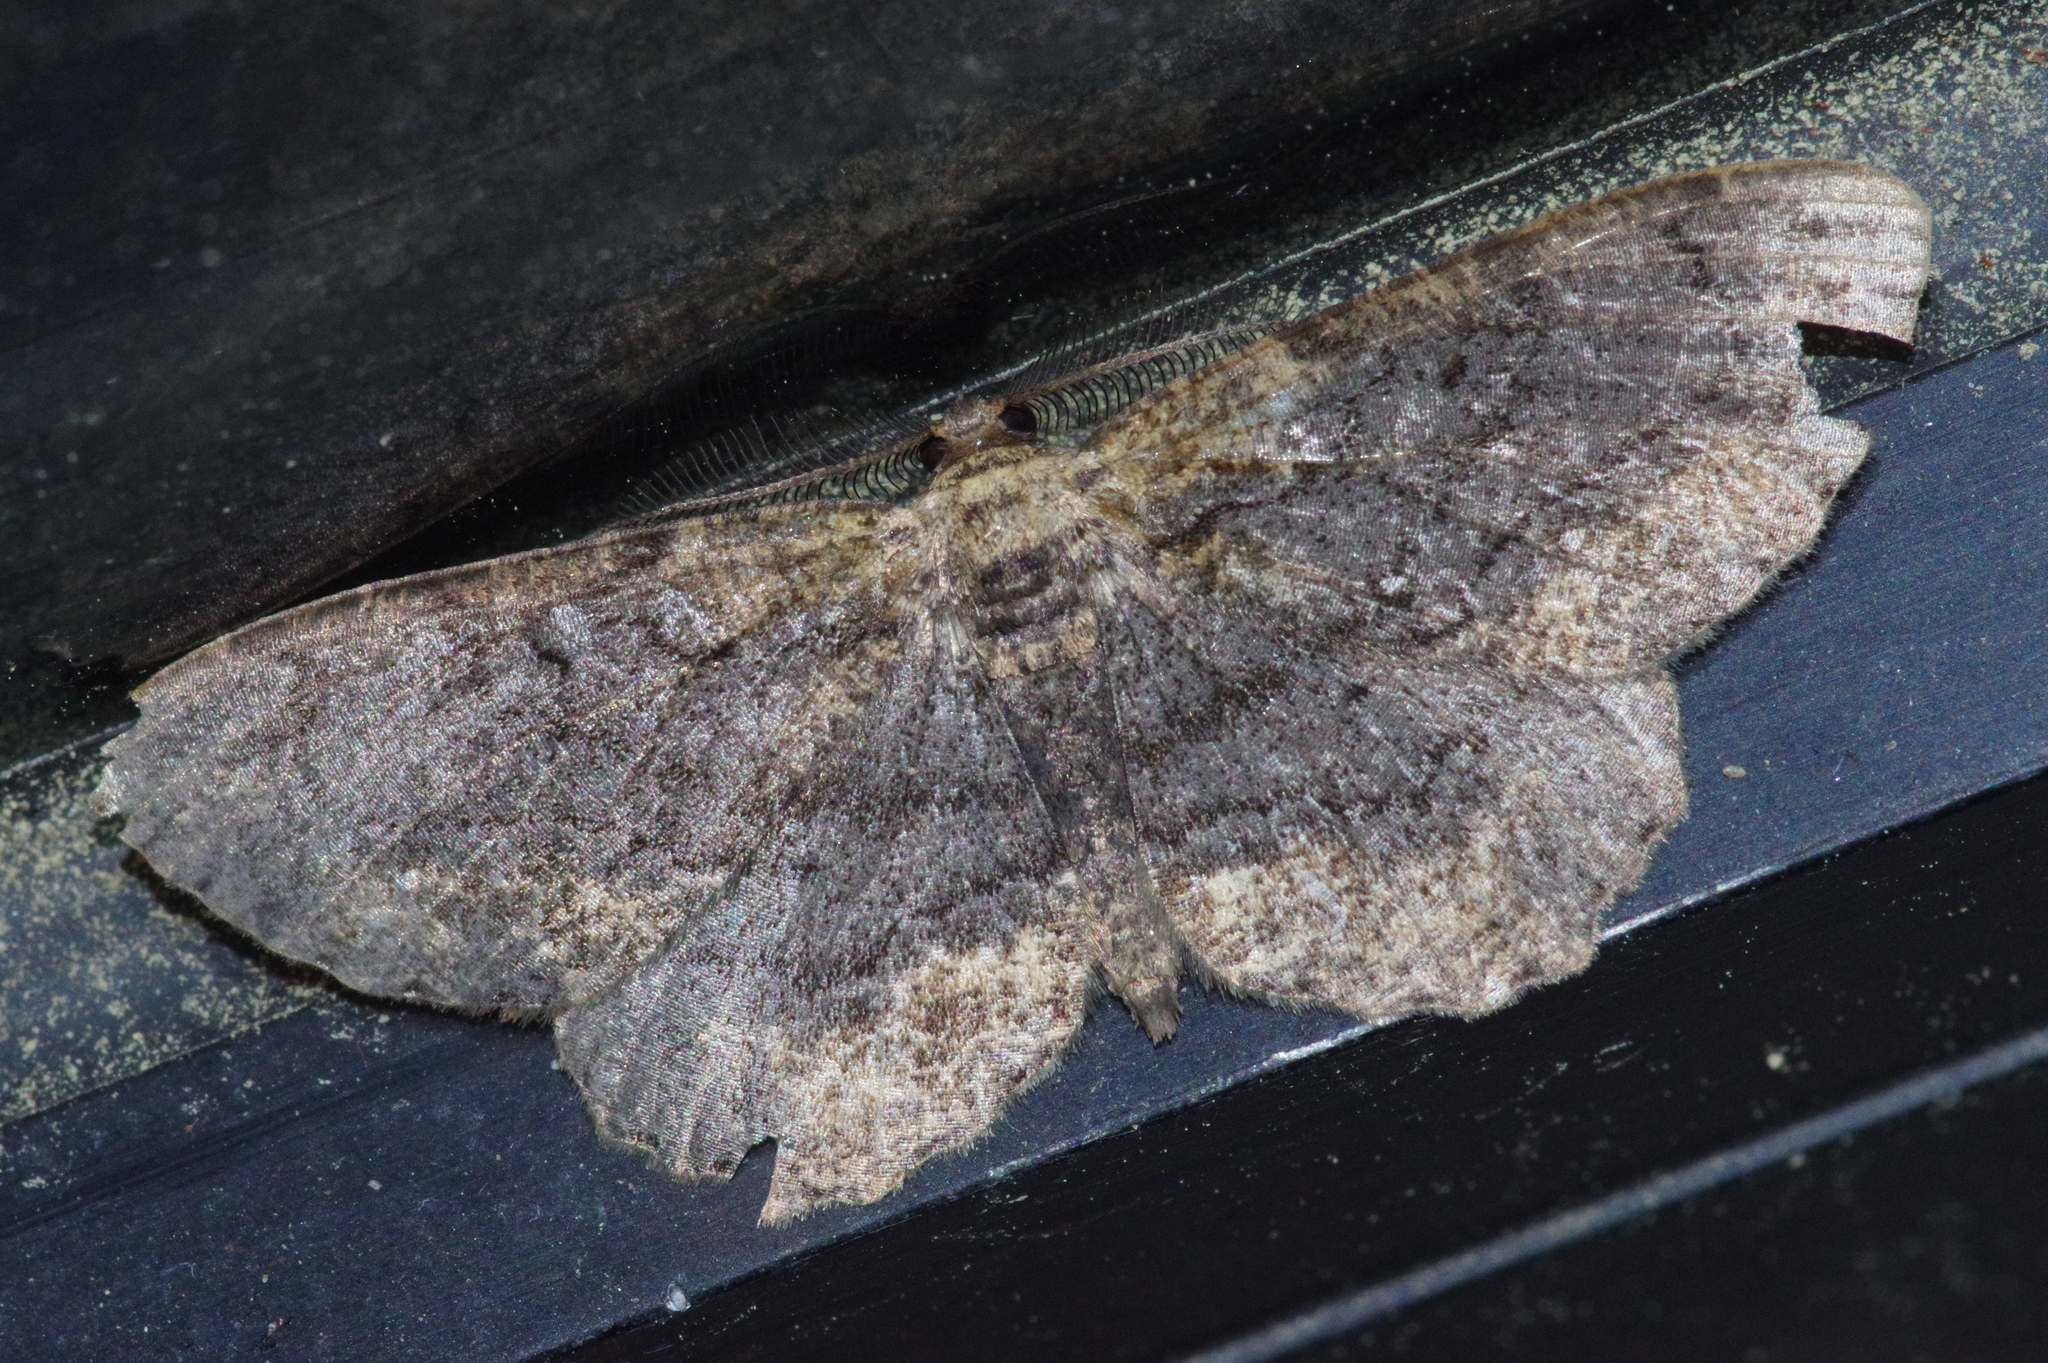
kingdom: Animalia
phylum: Arthropoda
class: Insecta
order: Lepidoptera
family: Geometridae
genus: Microcalicha
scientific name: Microcalicha fumosaria
